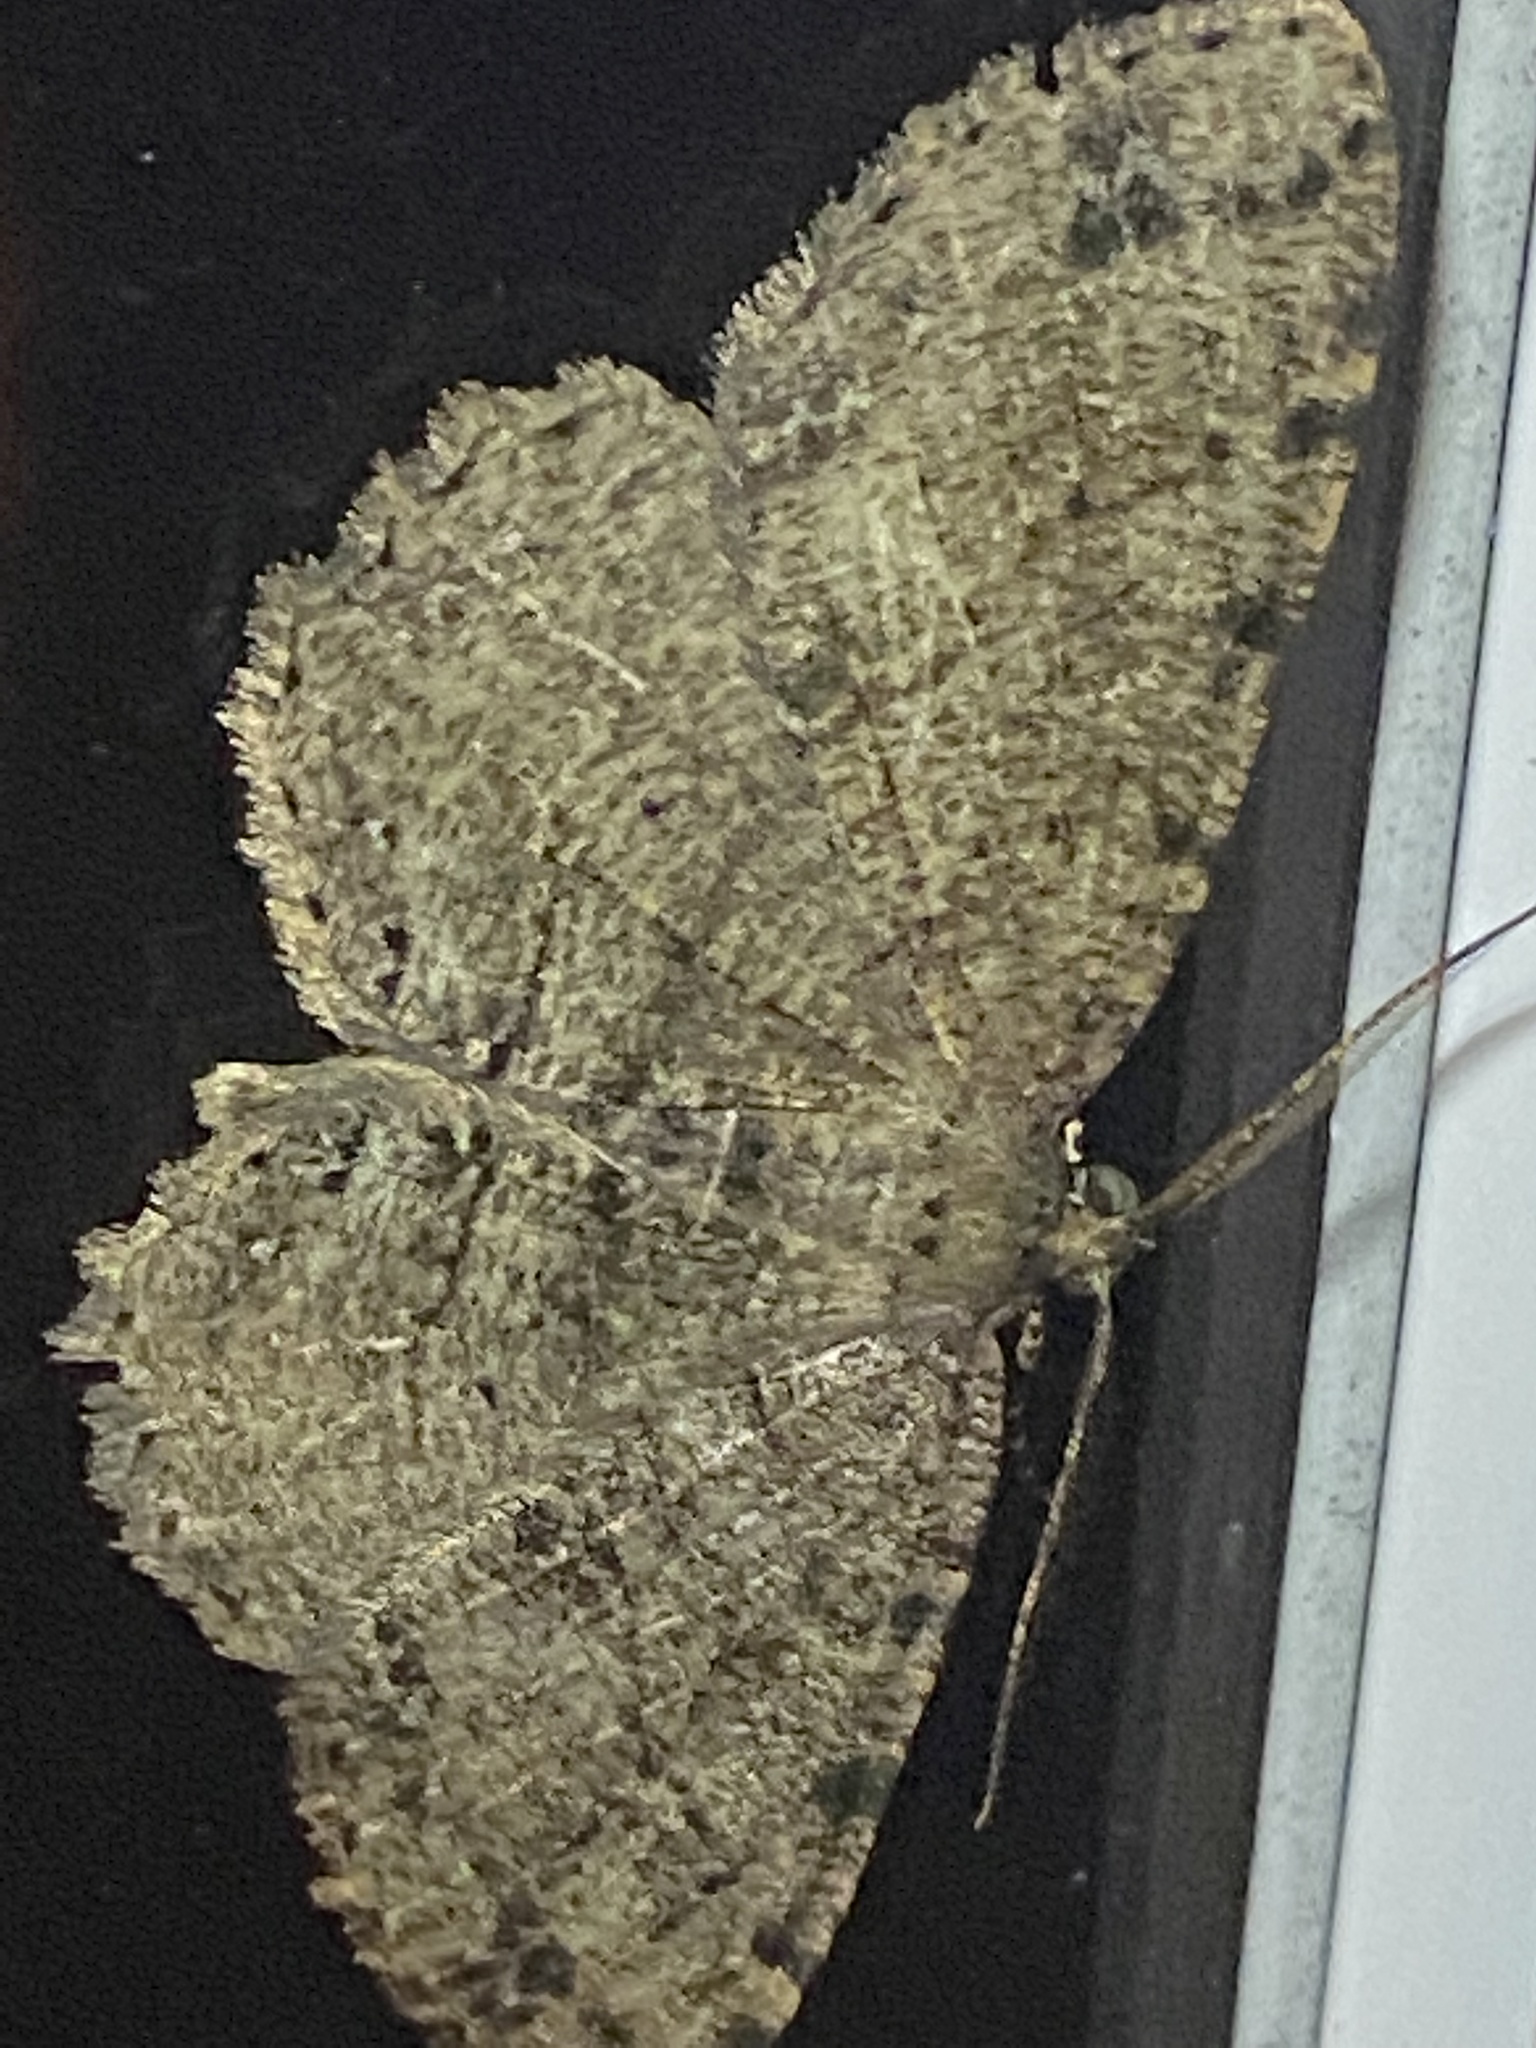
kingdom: Animalia
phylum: Arthropoda
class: Insecta
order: Lepidoptera
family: Geometridae
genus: Melanolophia
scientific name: Melanolophia canadaria
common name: Canadian melanolophia
